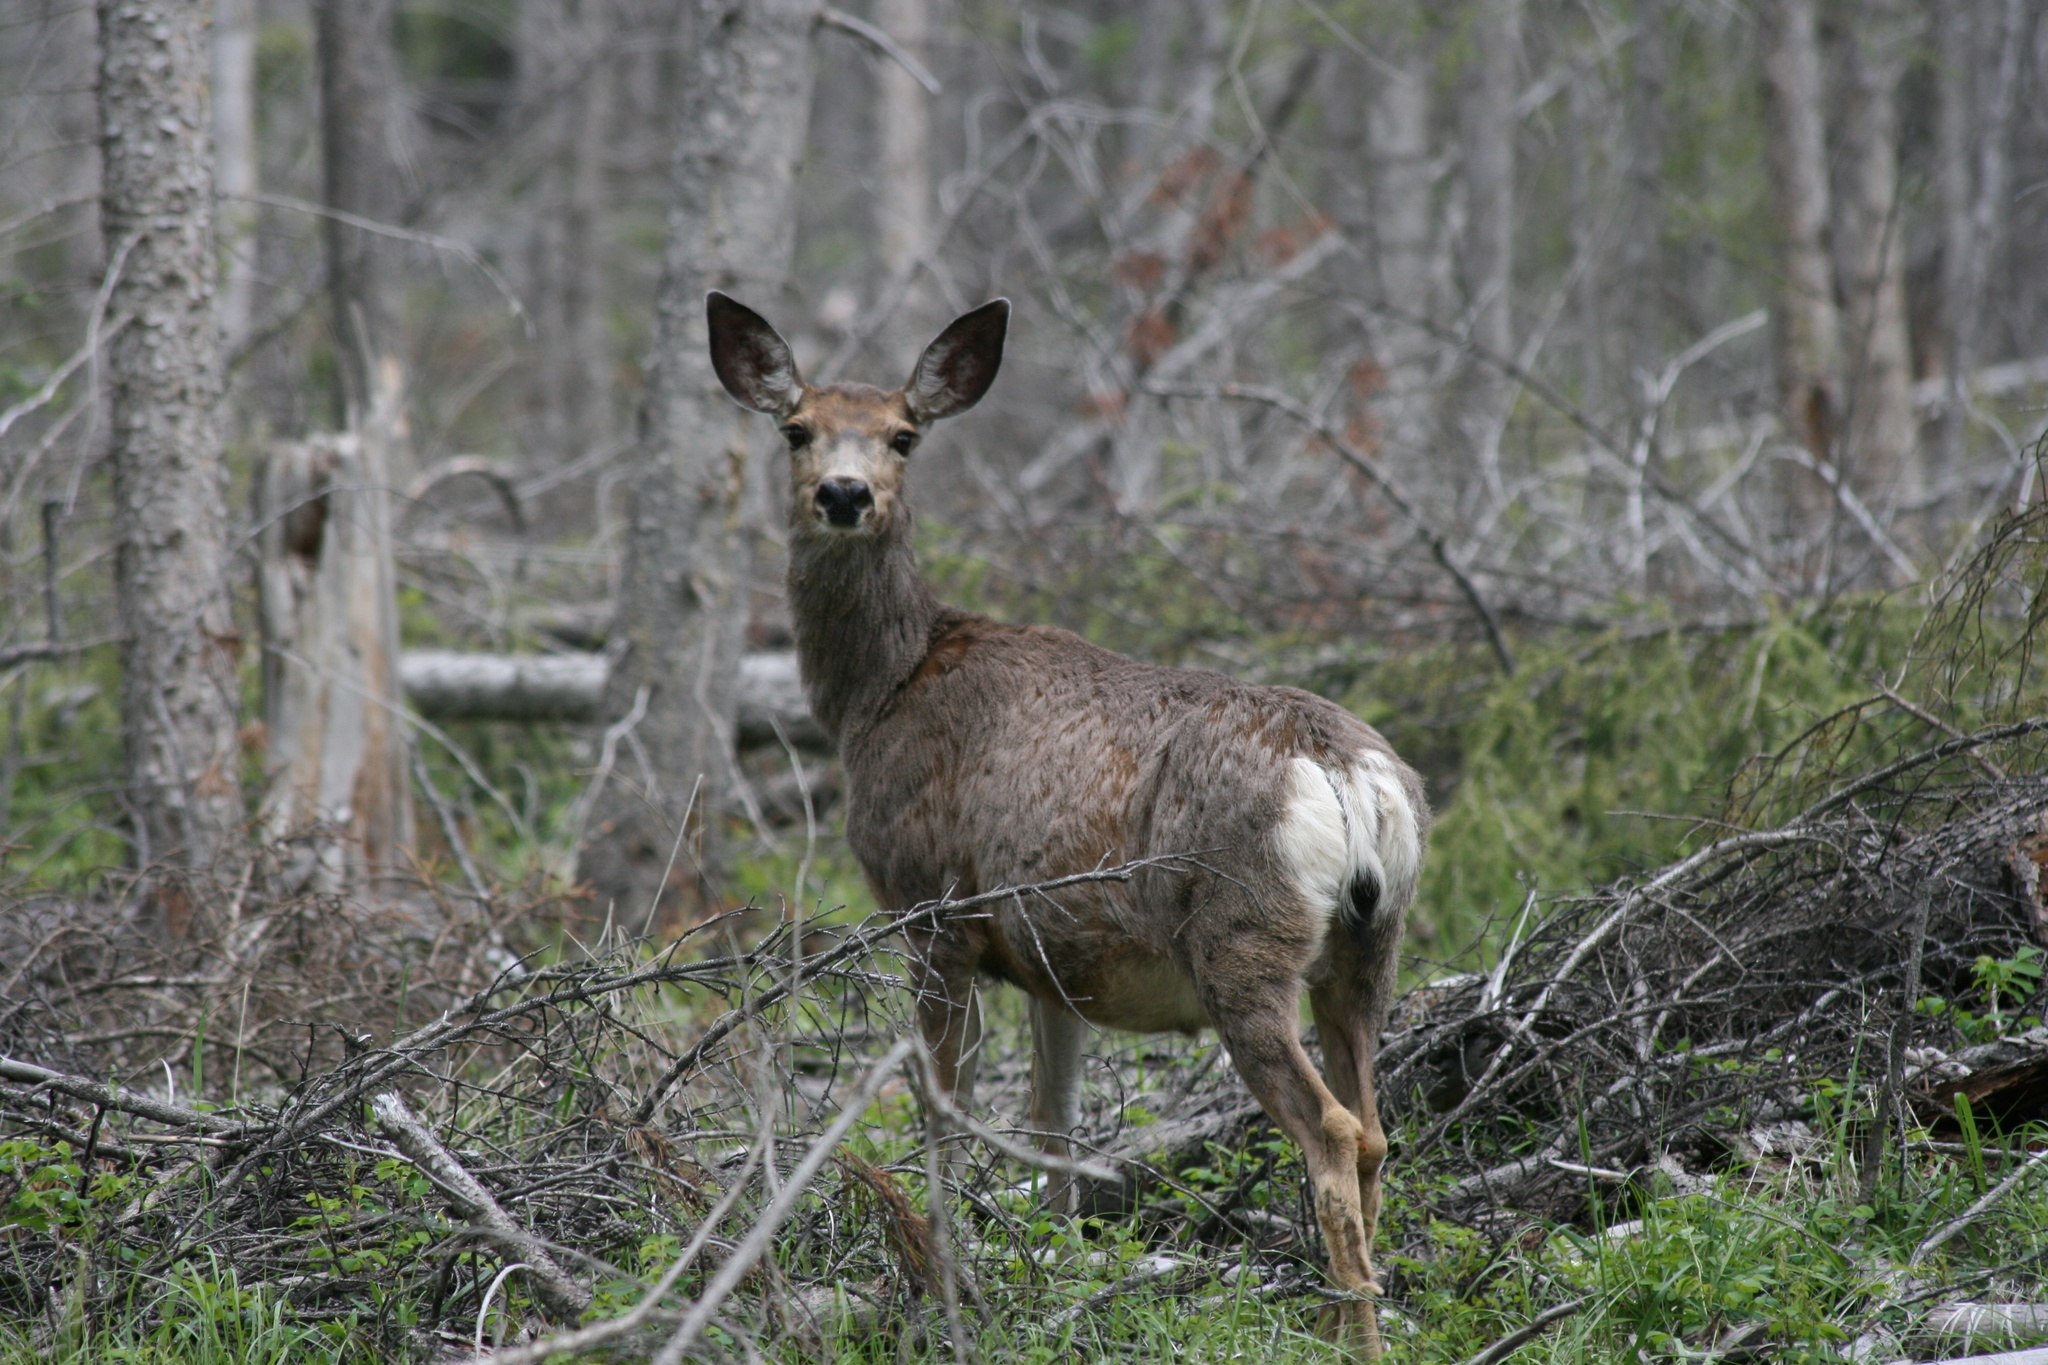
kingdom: Animalia
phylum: Chordata
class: Mammalia
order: Artiodactyla
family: Cervidae
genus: Odocoileus
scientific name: Odocoileus hemionus
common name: Mule deer
